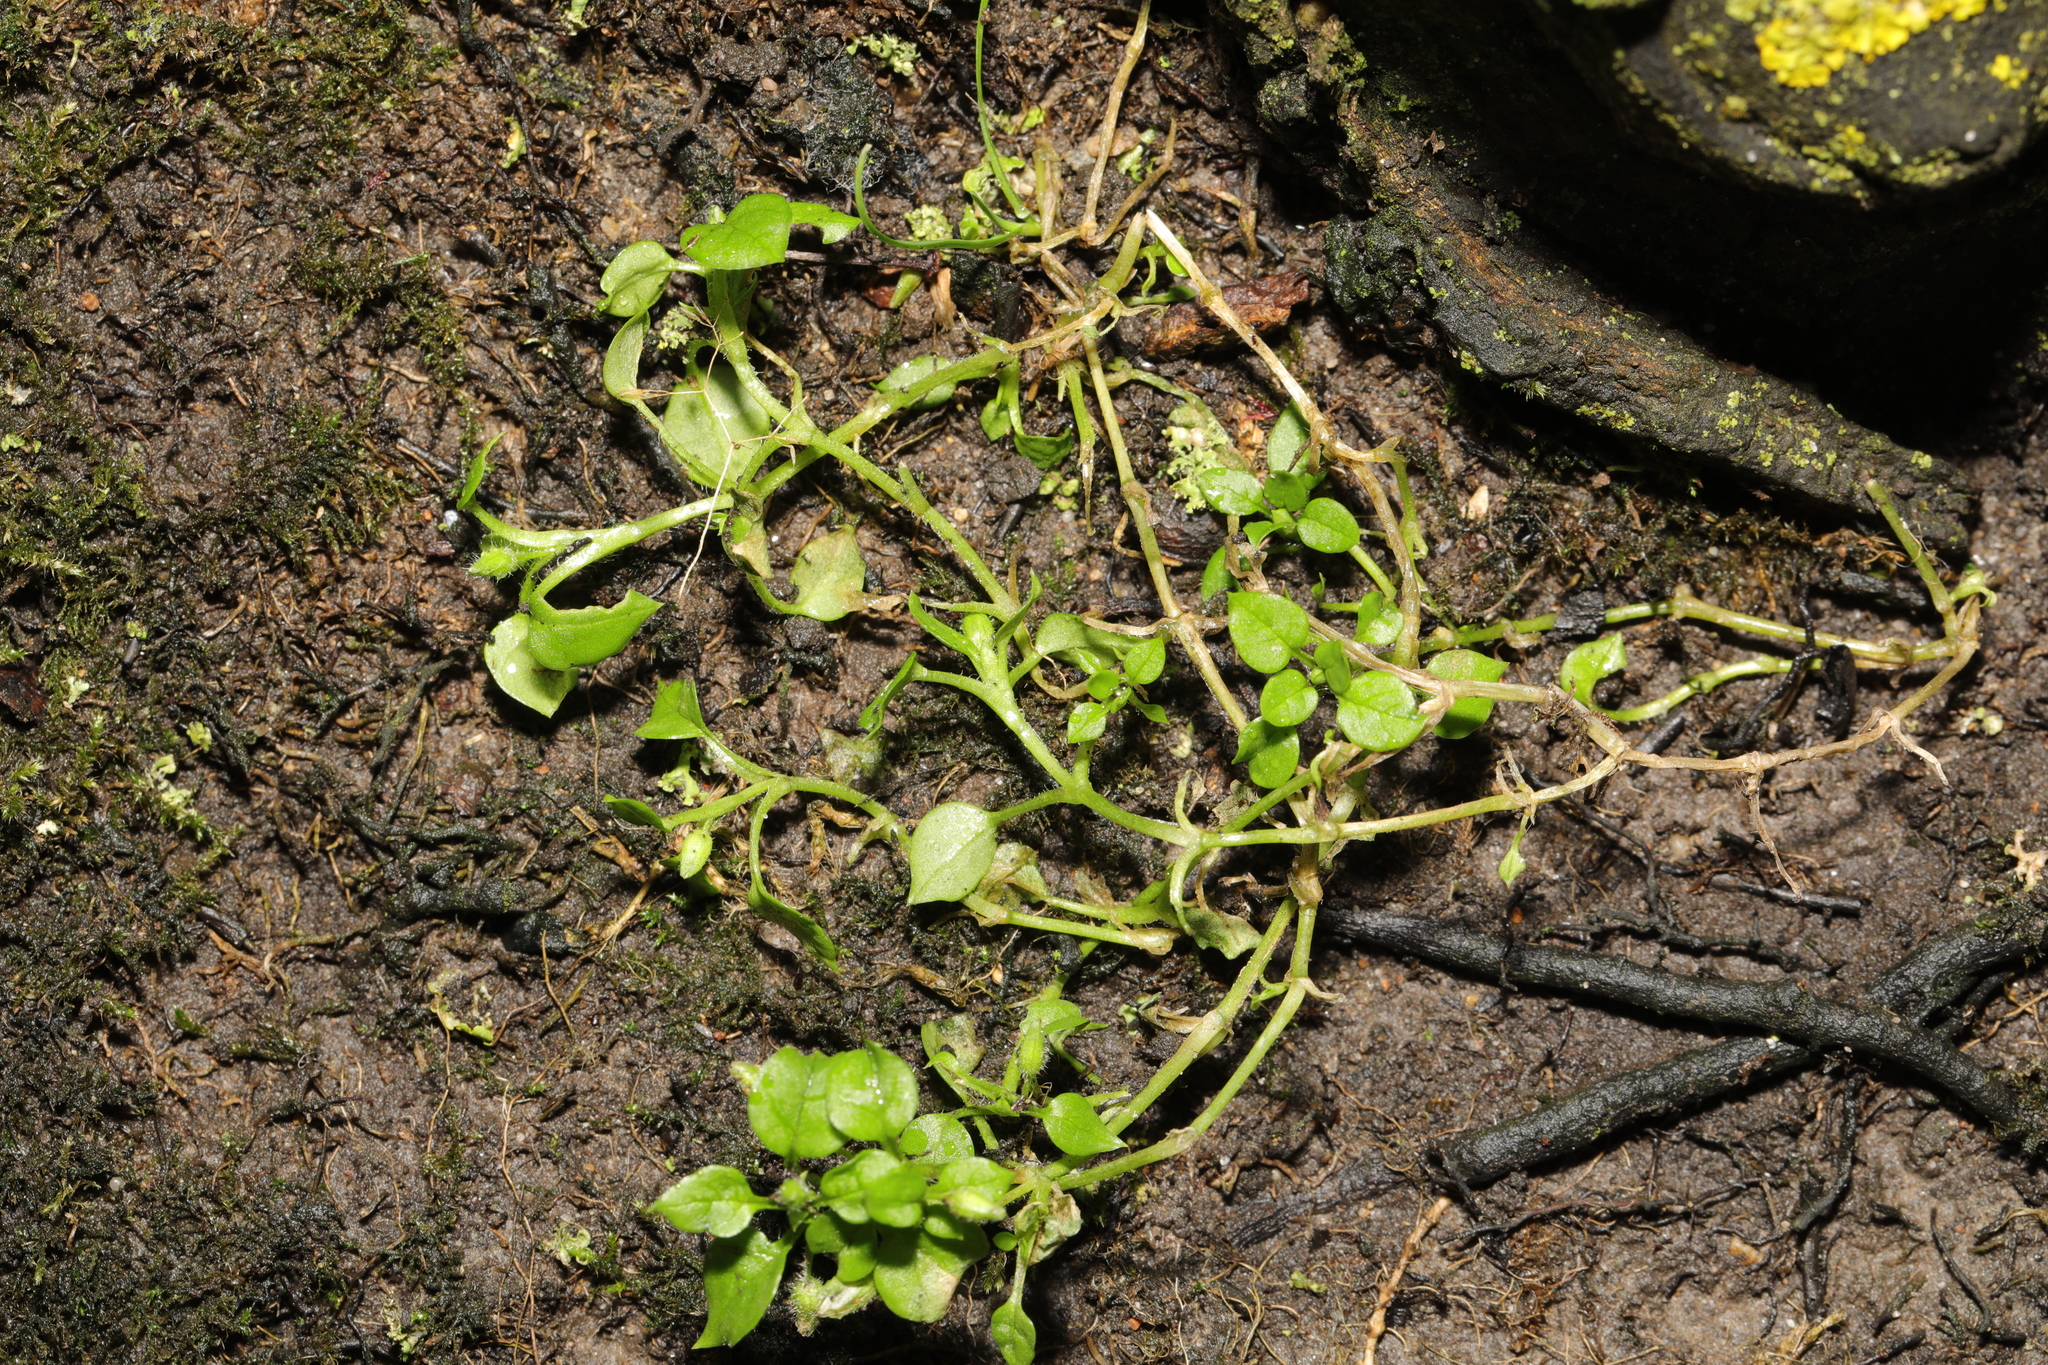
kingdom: Plantae
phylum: Tracheophyta
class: Magnoliopsida
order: Caryophyllales
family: Caryophyllaceae
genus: Stellaria
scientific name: Stellaria media
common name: Common chickweed
